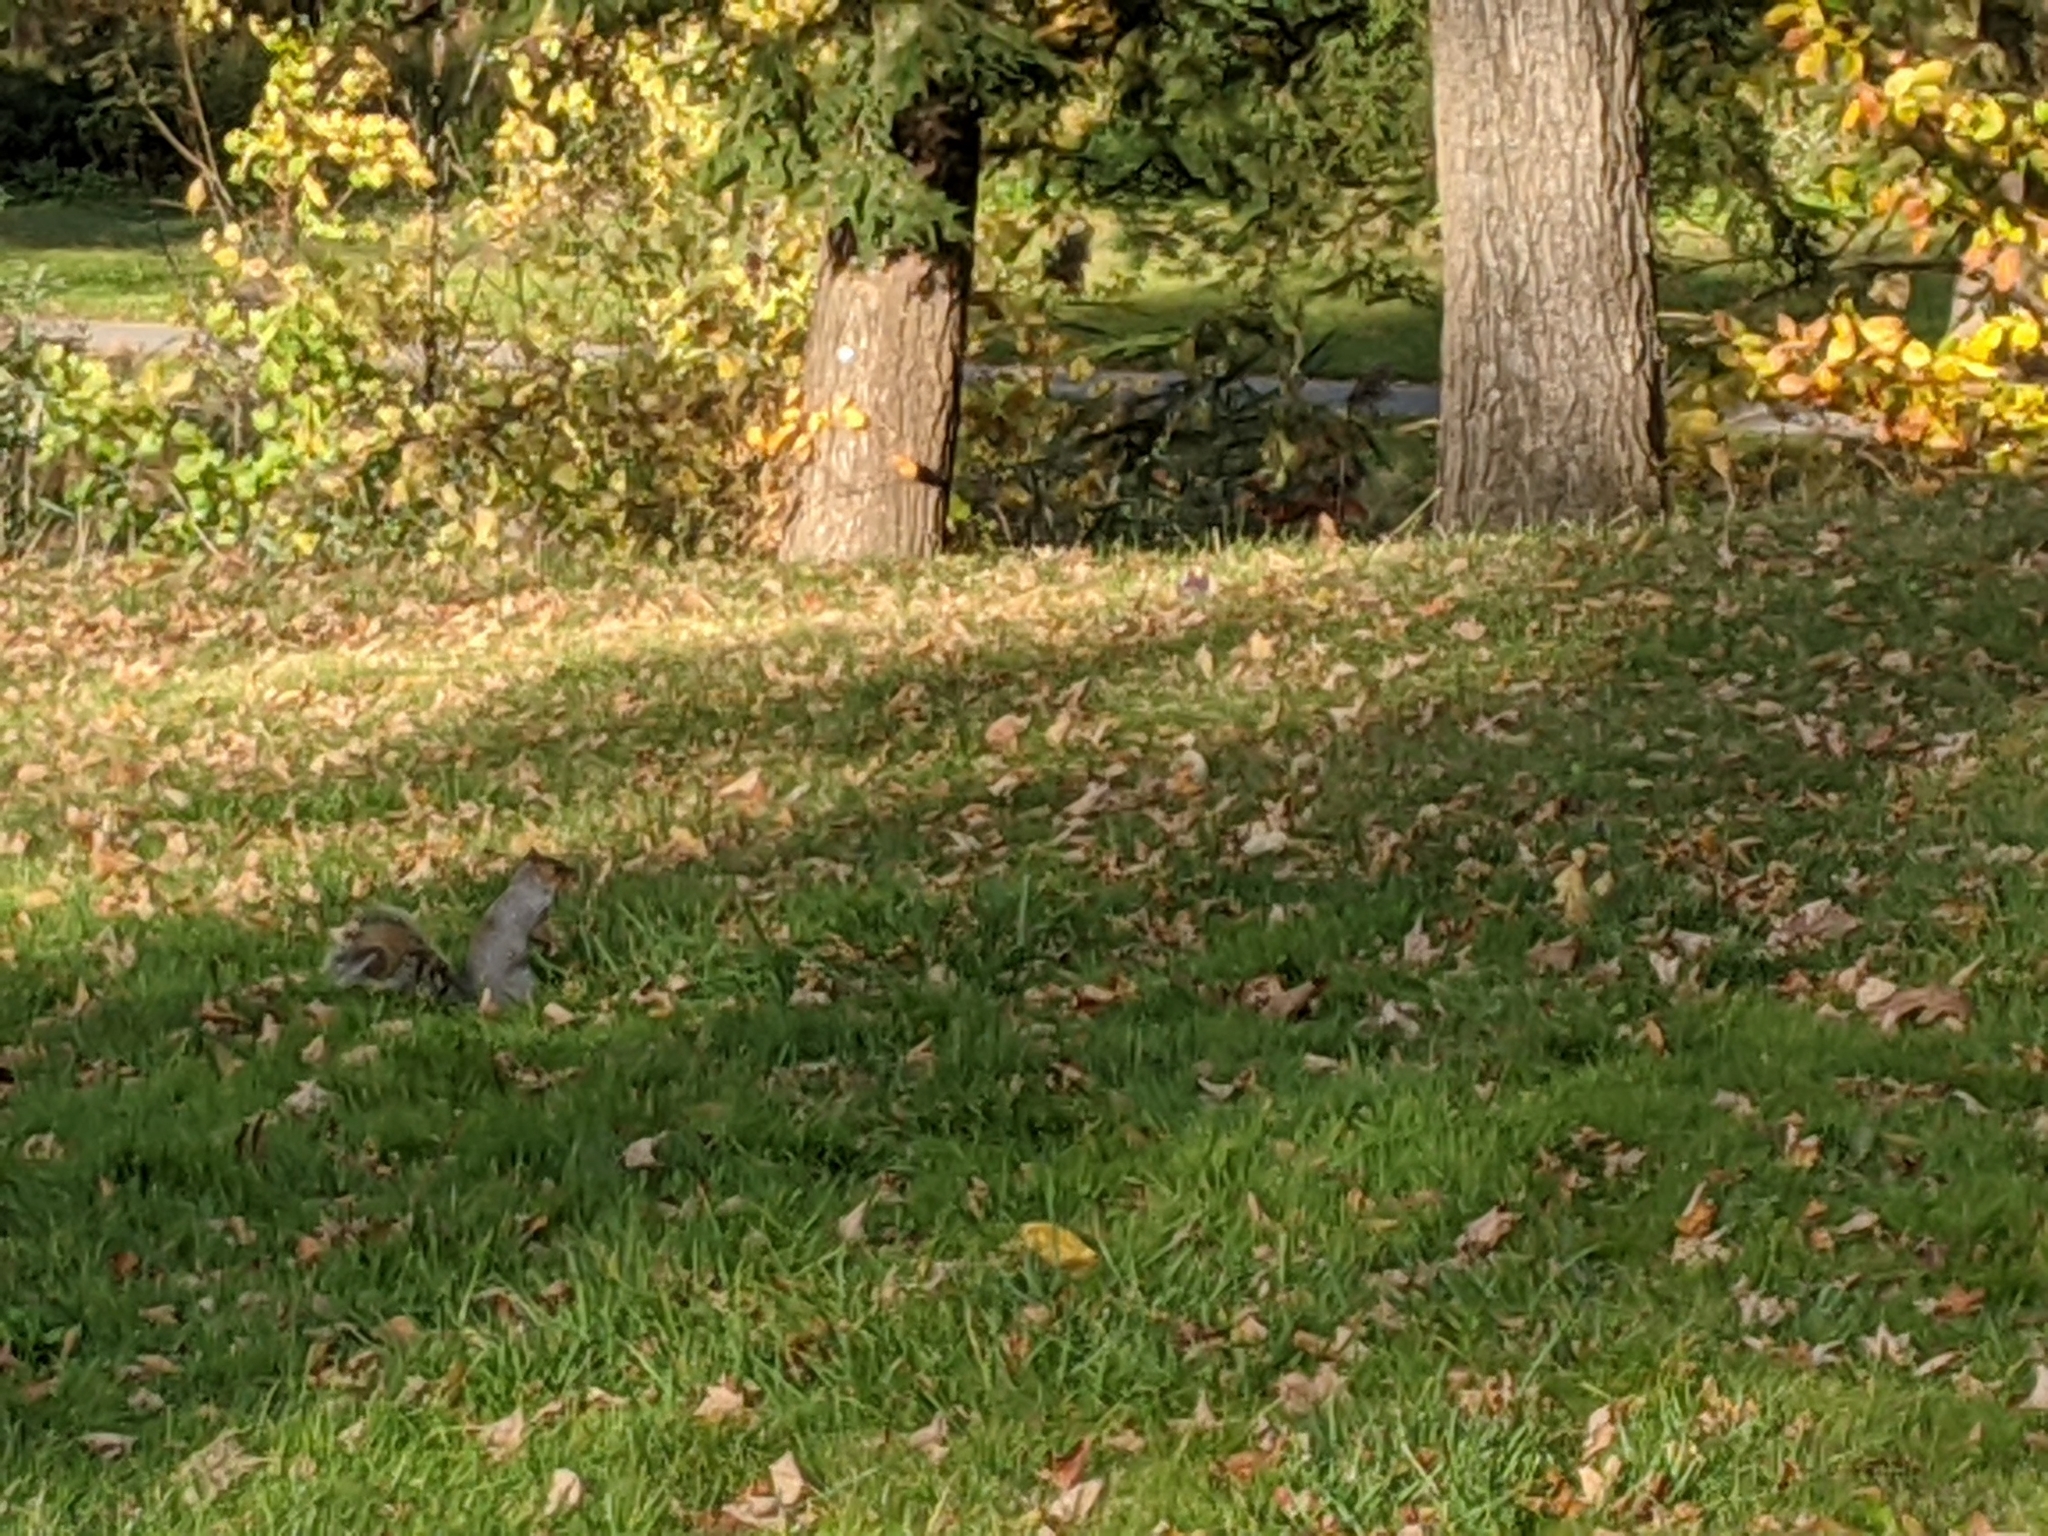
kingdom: Animalia
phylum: Chordata
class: Mammalia
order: Rodentia
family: Sciuridae
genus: Sciurus
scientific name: Sciurus carolinensis
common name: Eastern gray squirrel
